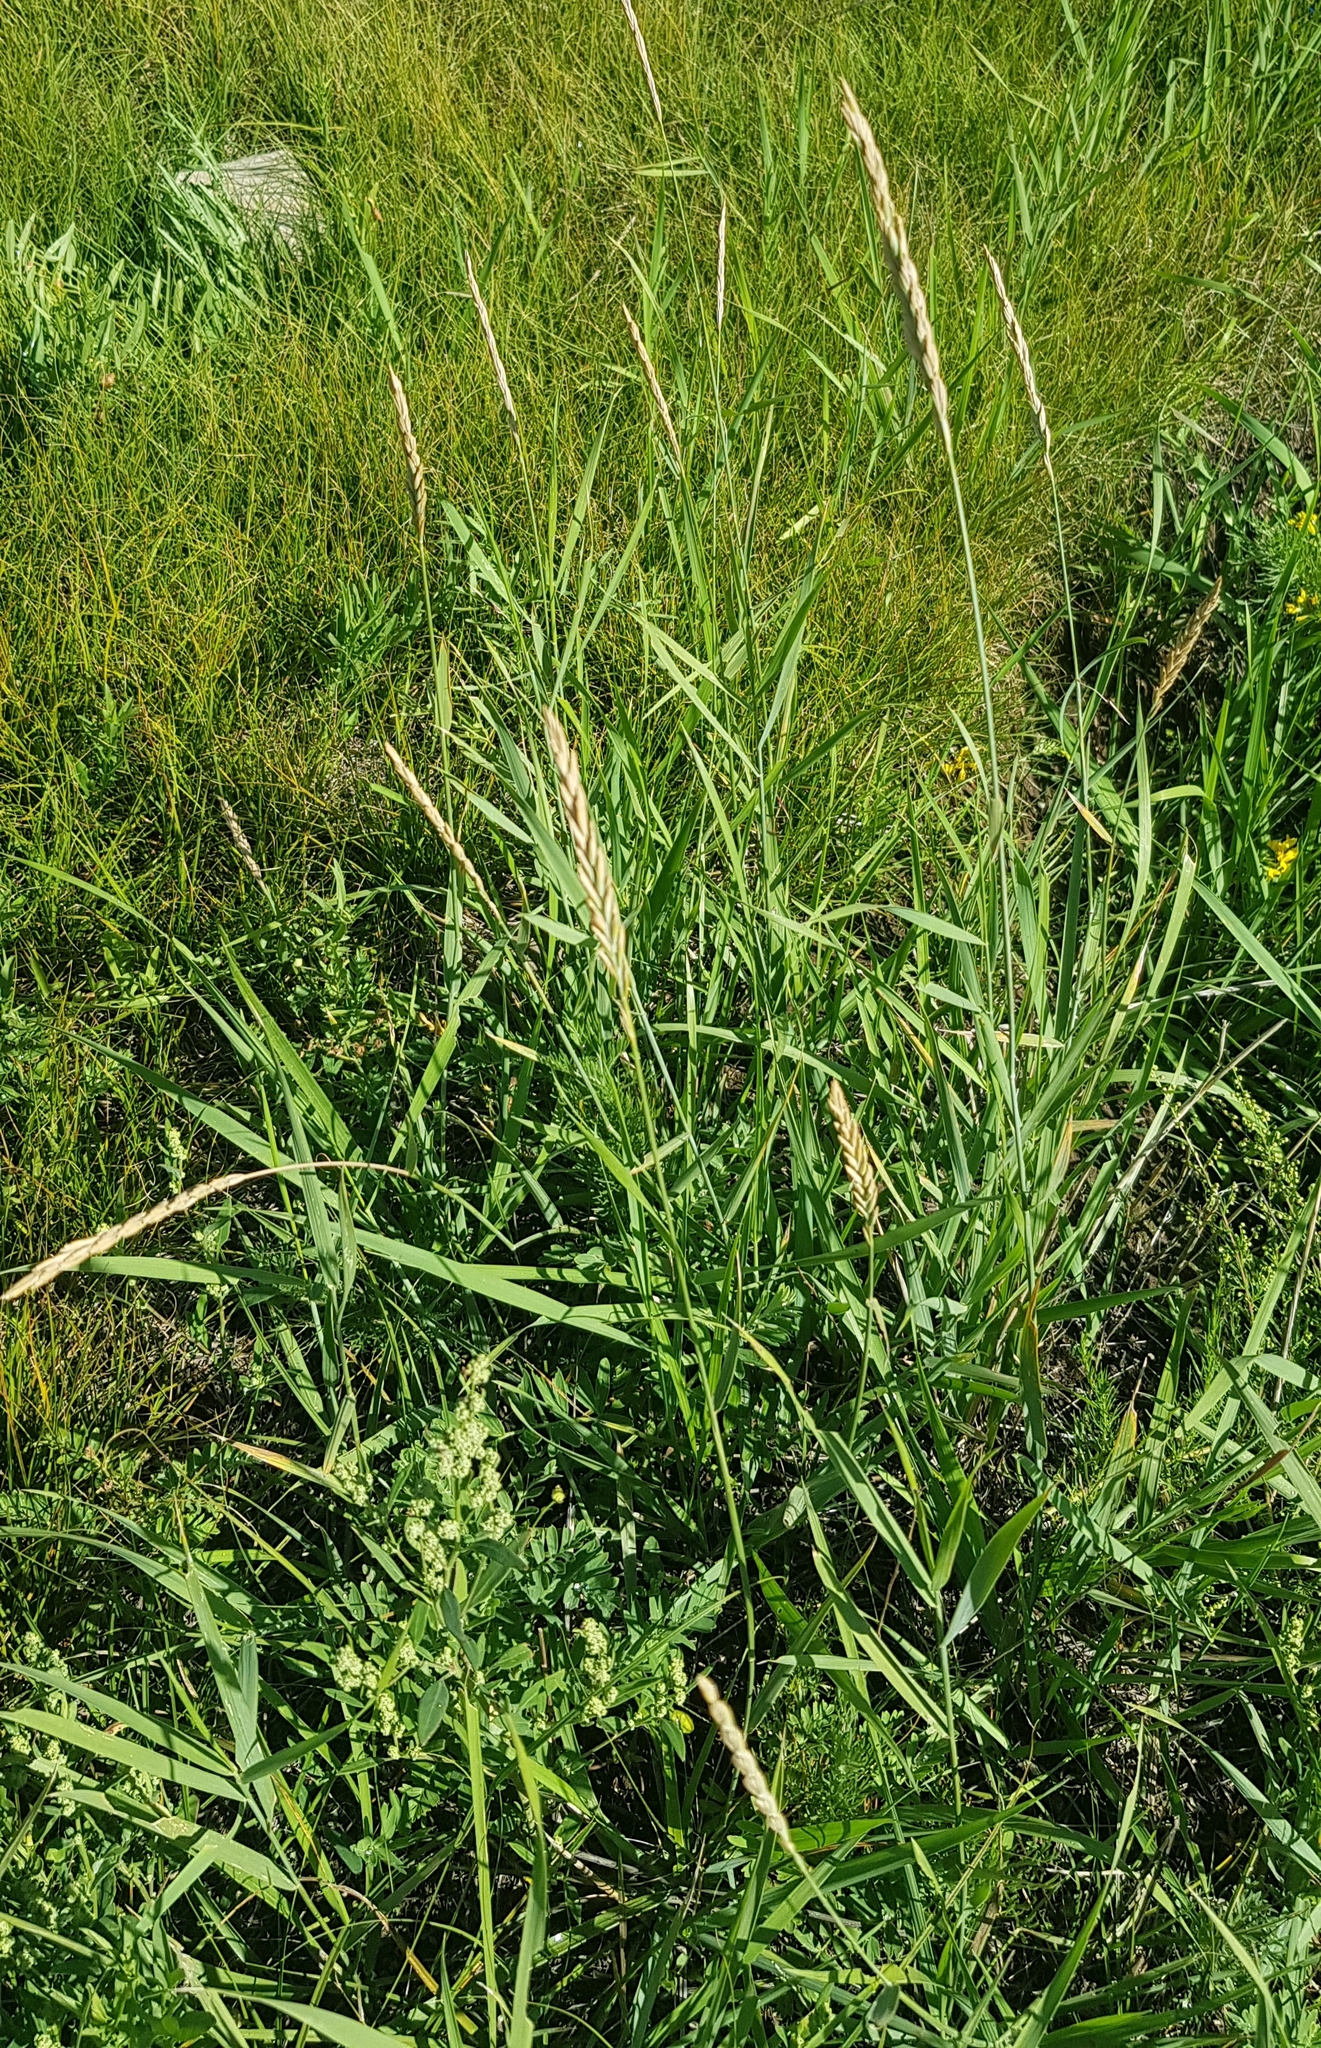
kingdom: Plantae
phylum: Tracheophyta
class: Liliopsida
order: Poales
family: Poaceae
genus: Elymus
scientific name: Elymus repens
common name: Quackgrass
